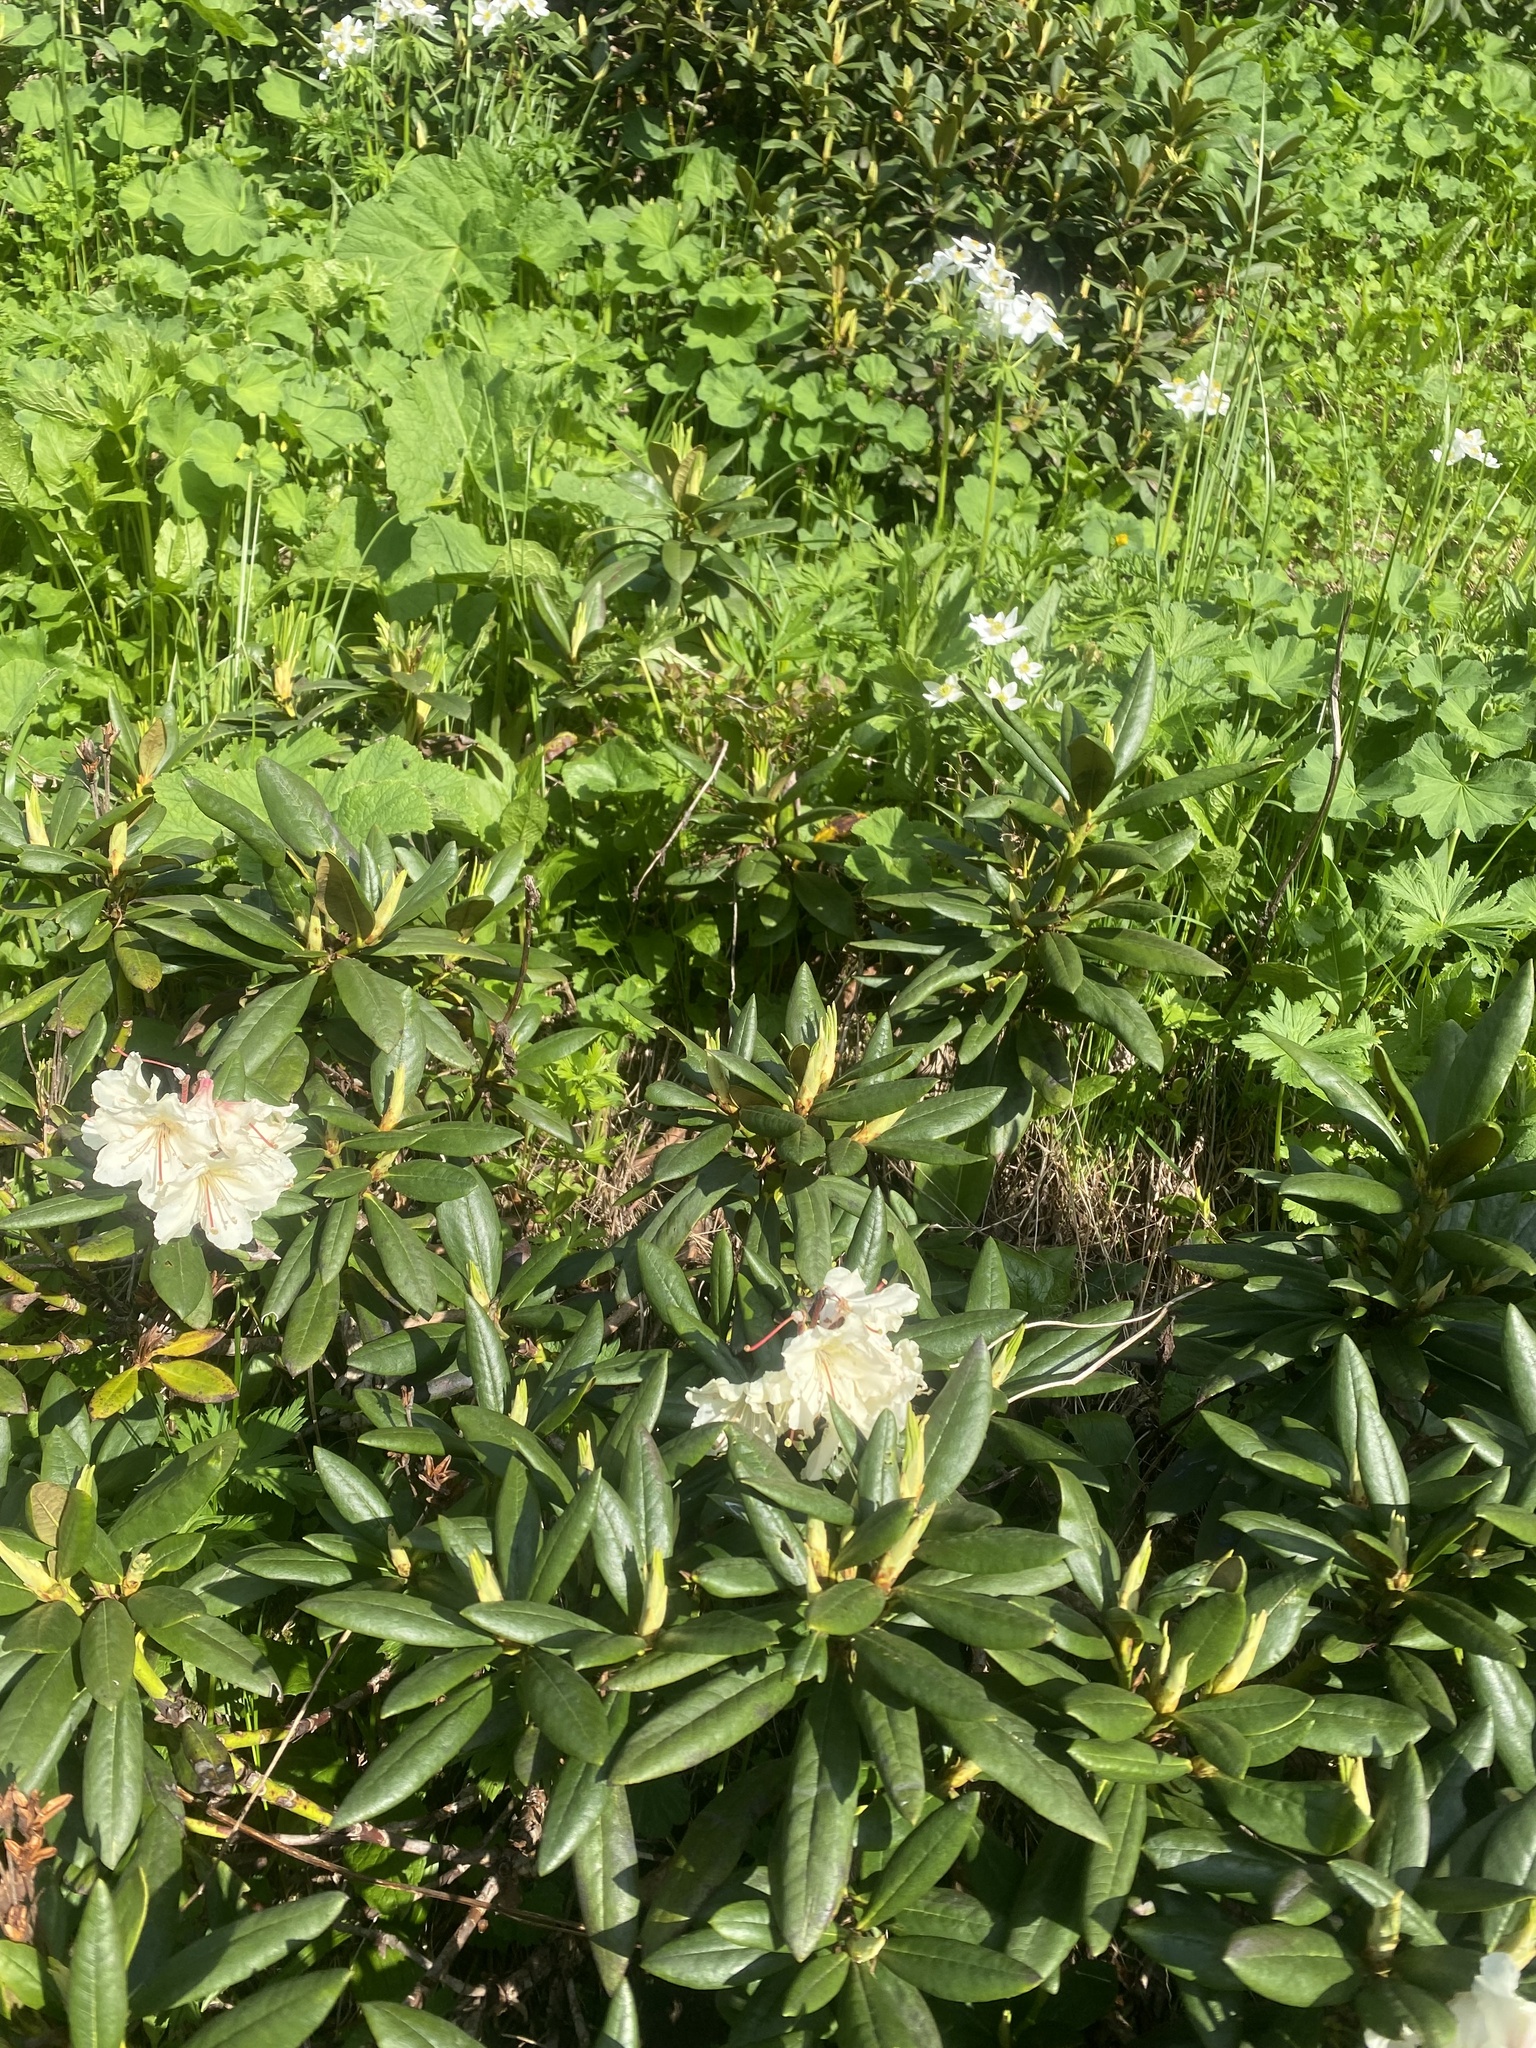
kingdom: Plantae
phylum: Tracheophyta
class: Magnoliopsida
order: Ericales
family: Ericaceae
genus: Rhododendron
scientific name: Rhododendron caucasicum
